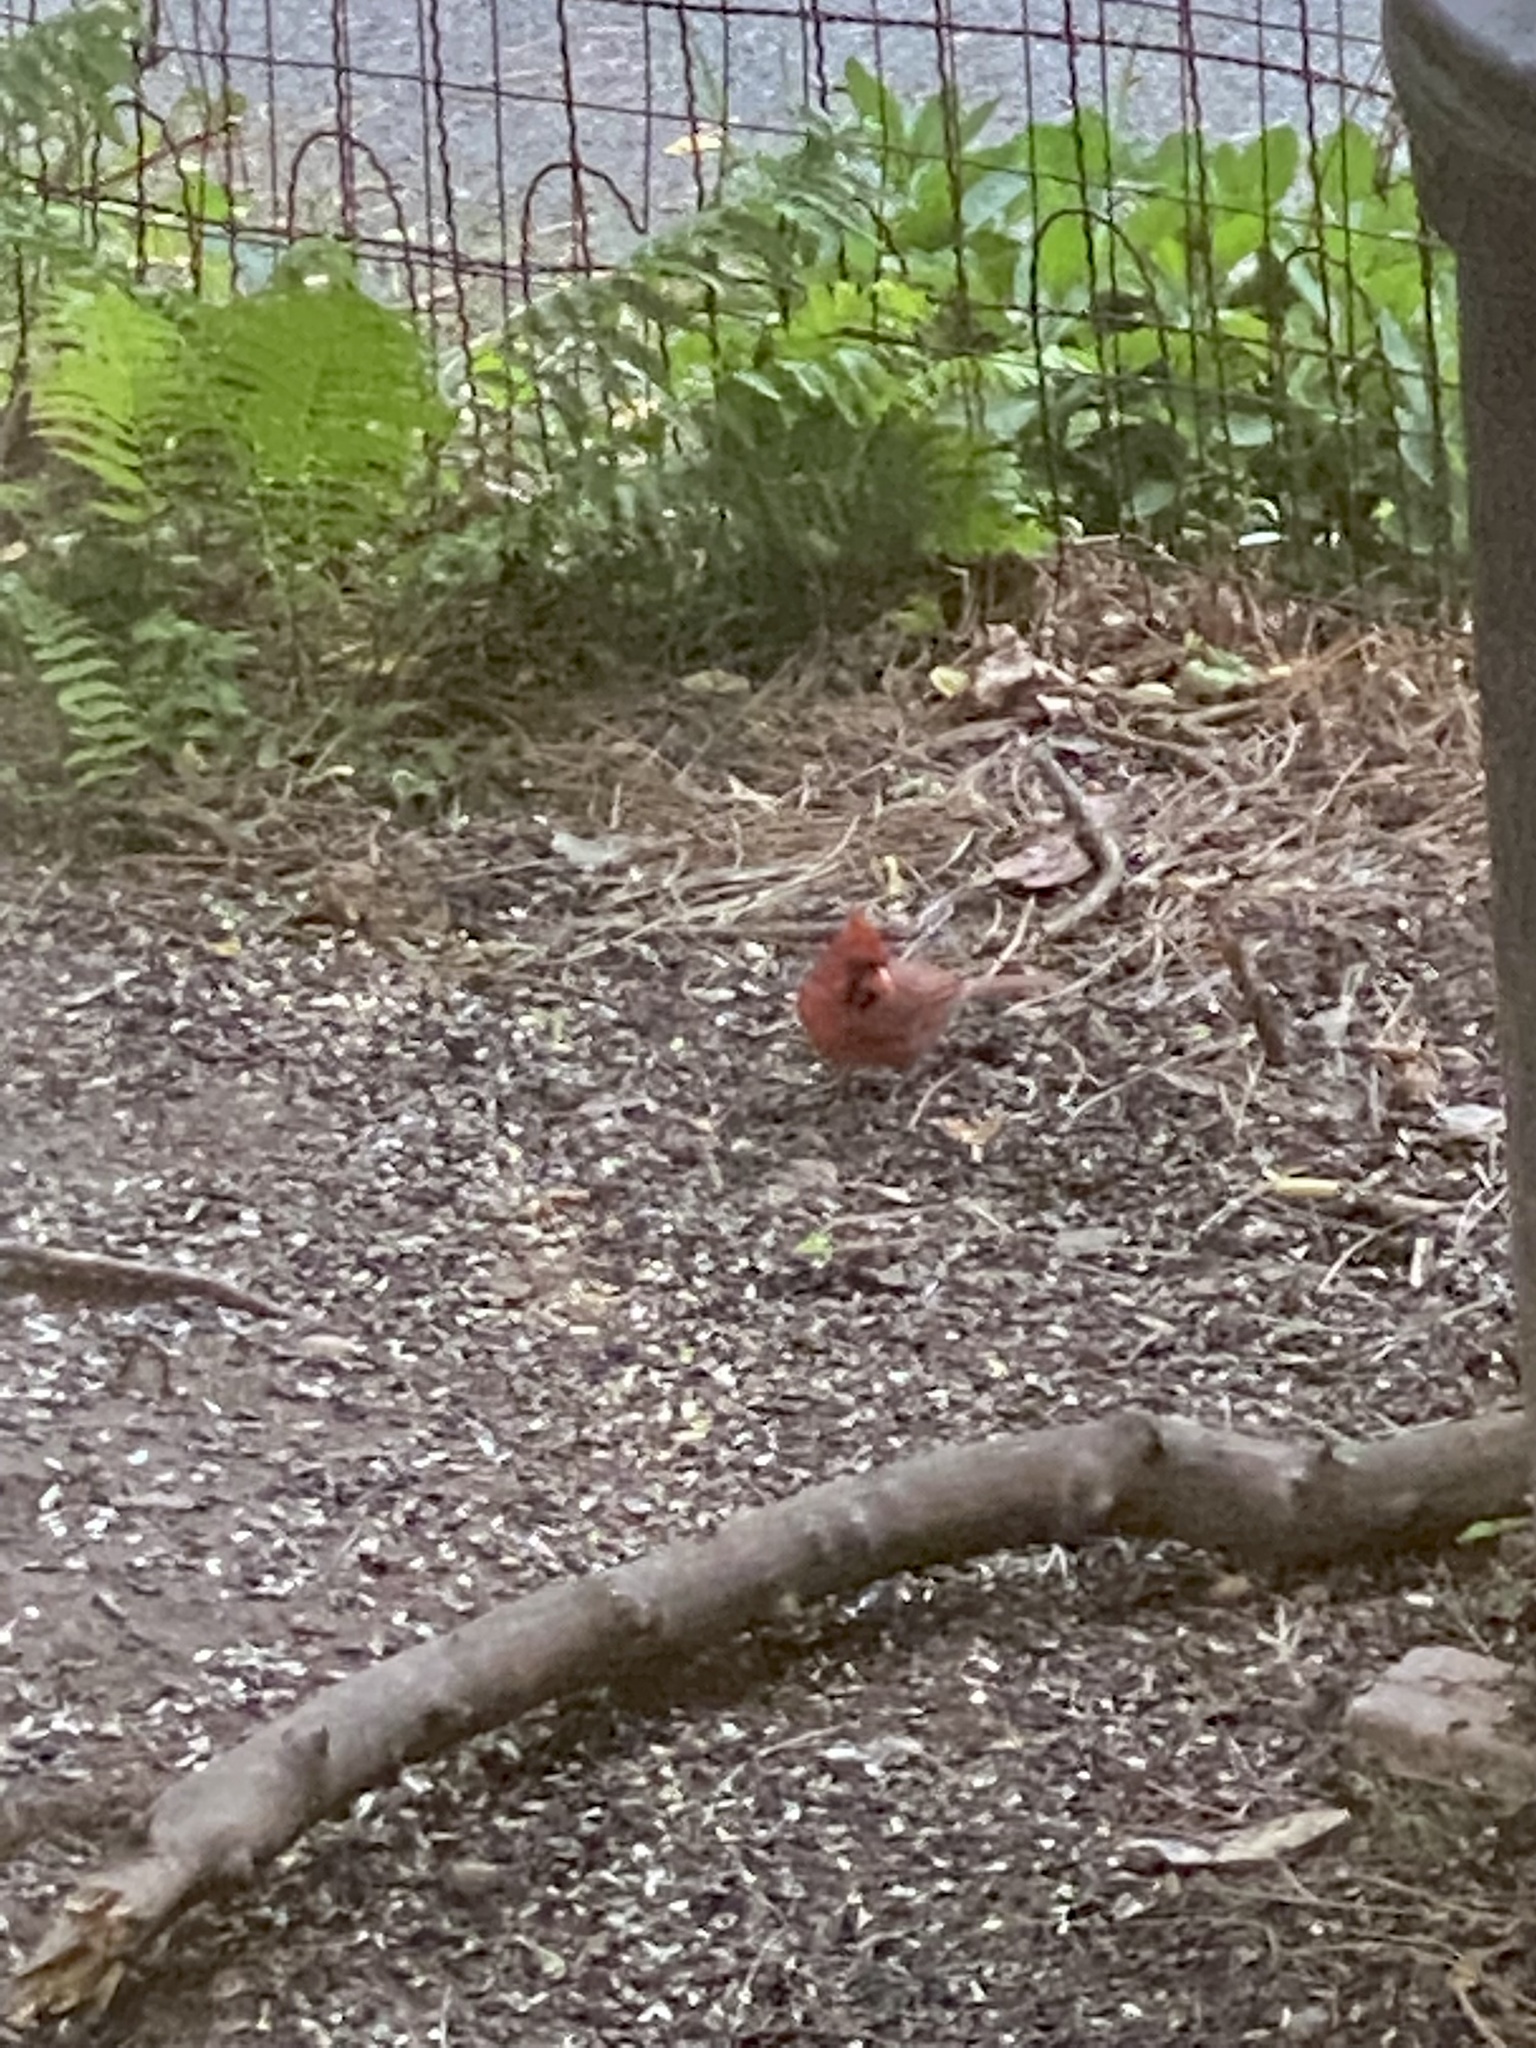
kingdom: Animalia
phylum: Chordata
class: Aves
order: Passeriformes
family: Cardinalidae
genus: Cardinalis
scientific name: Cardinalis cardinalis
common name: Northern cardinal
